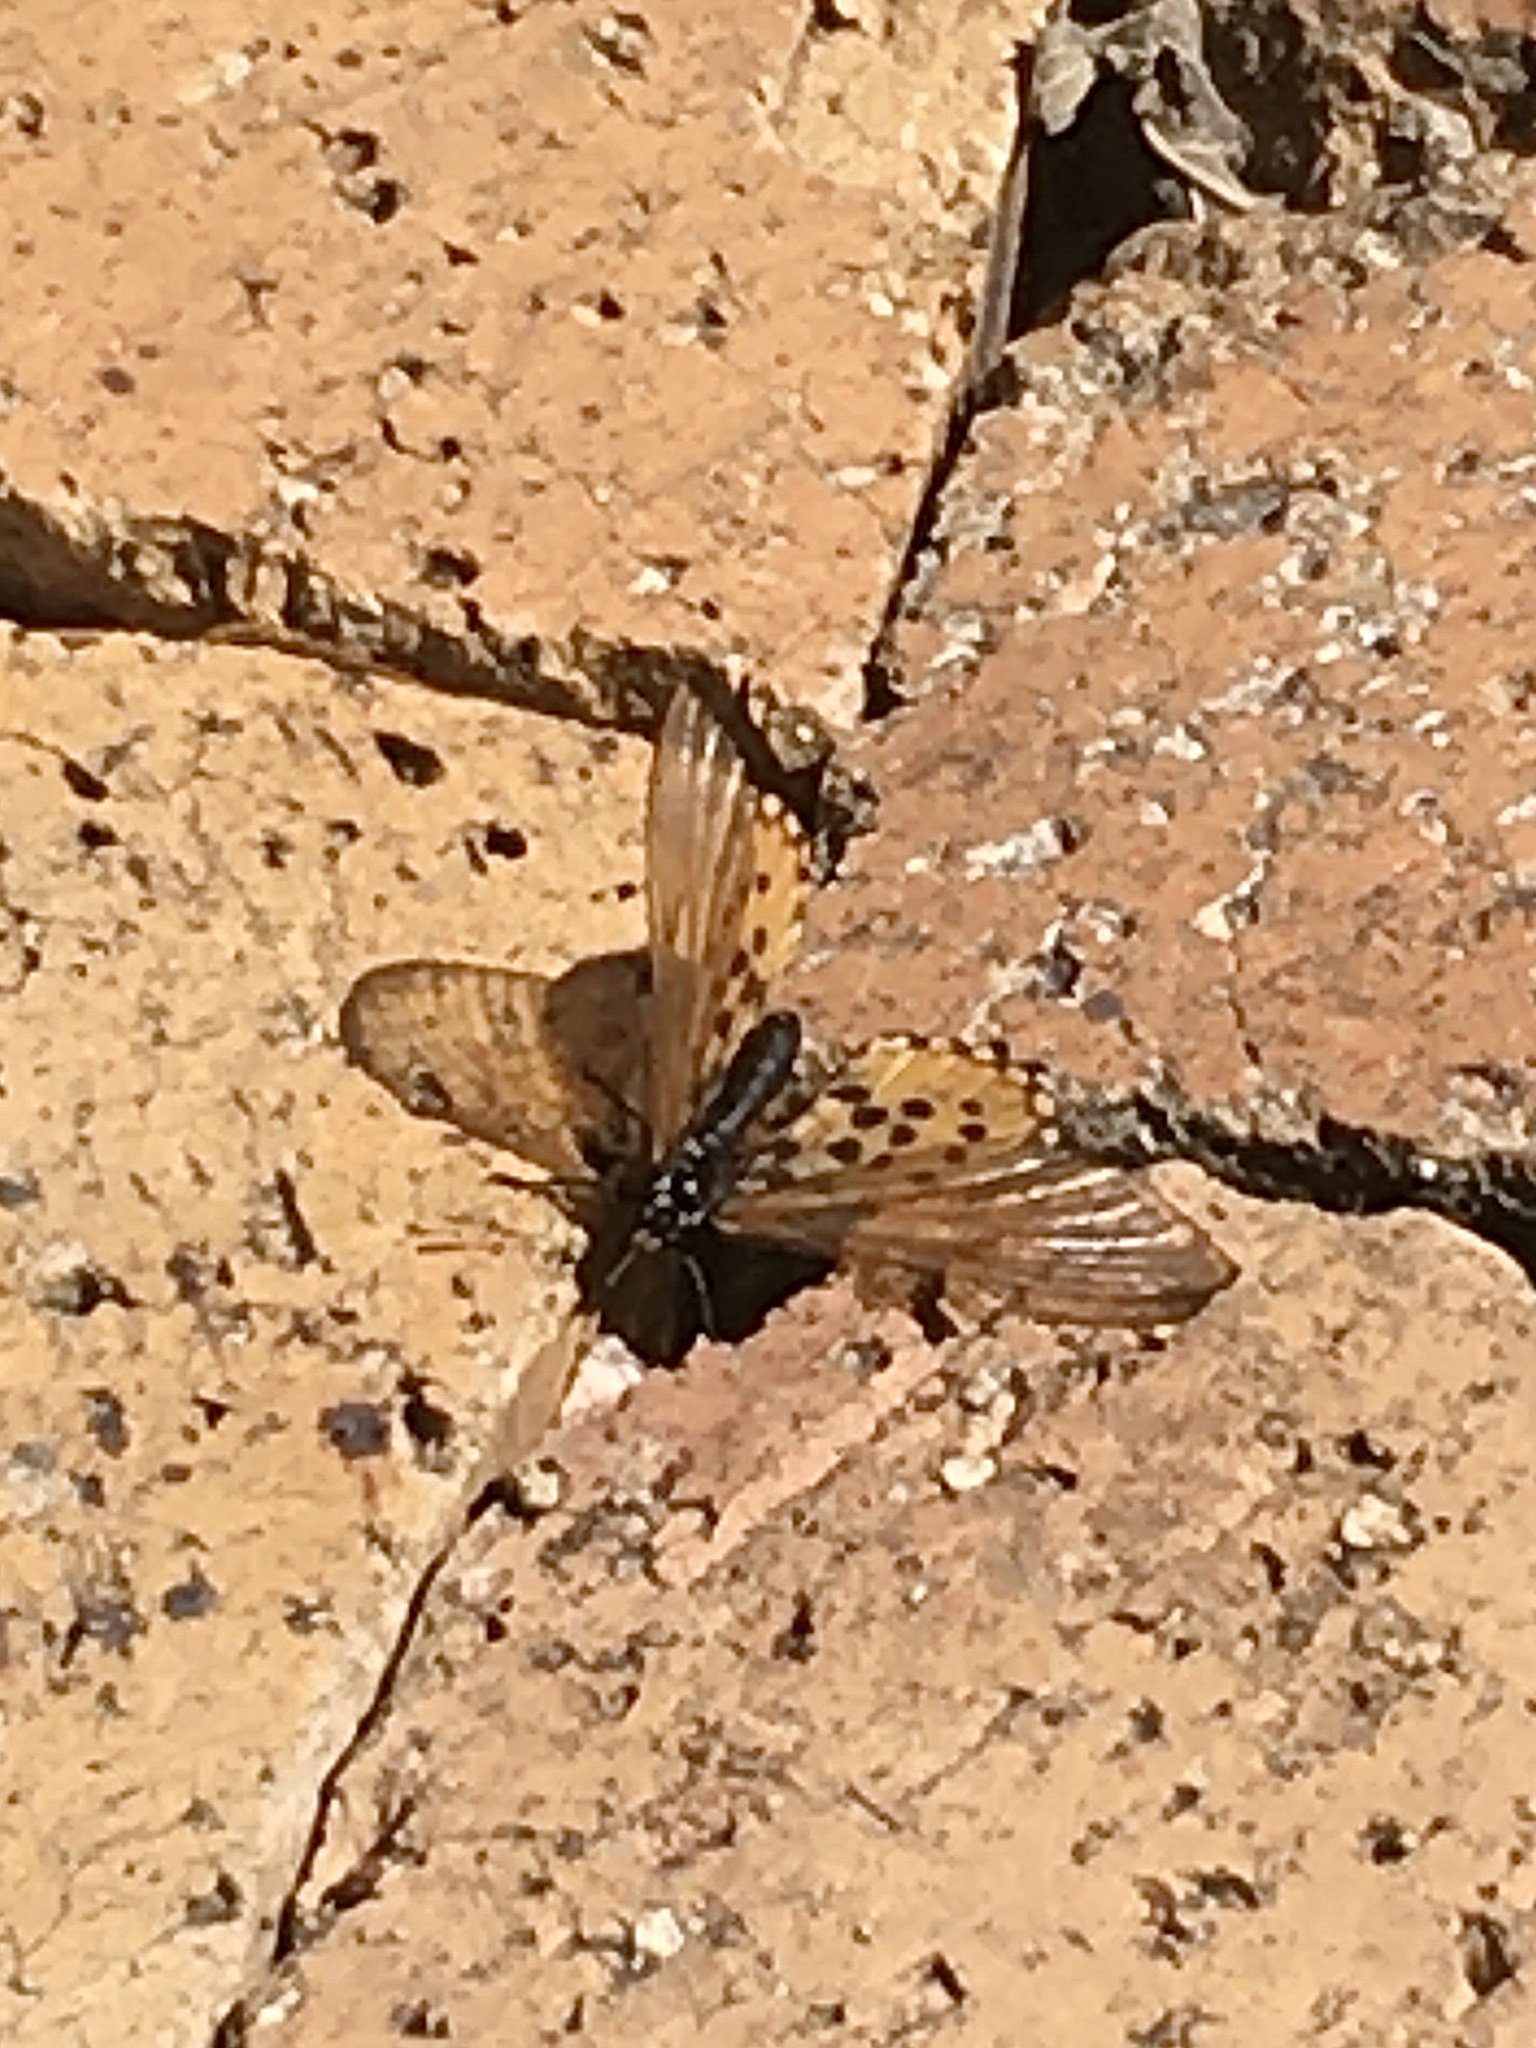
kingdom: Animalia
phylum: Arthropoda
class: Insecta
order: Lepidoptera
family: Nymphalidae
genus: Acraea
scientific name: Acraea horta
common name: Garden acraea
